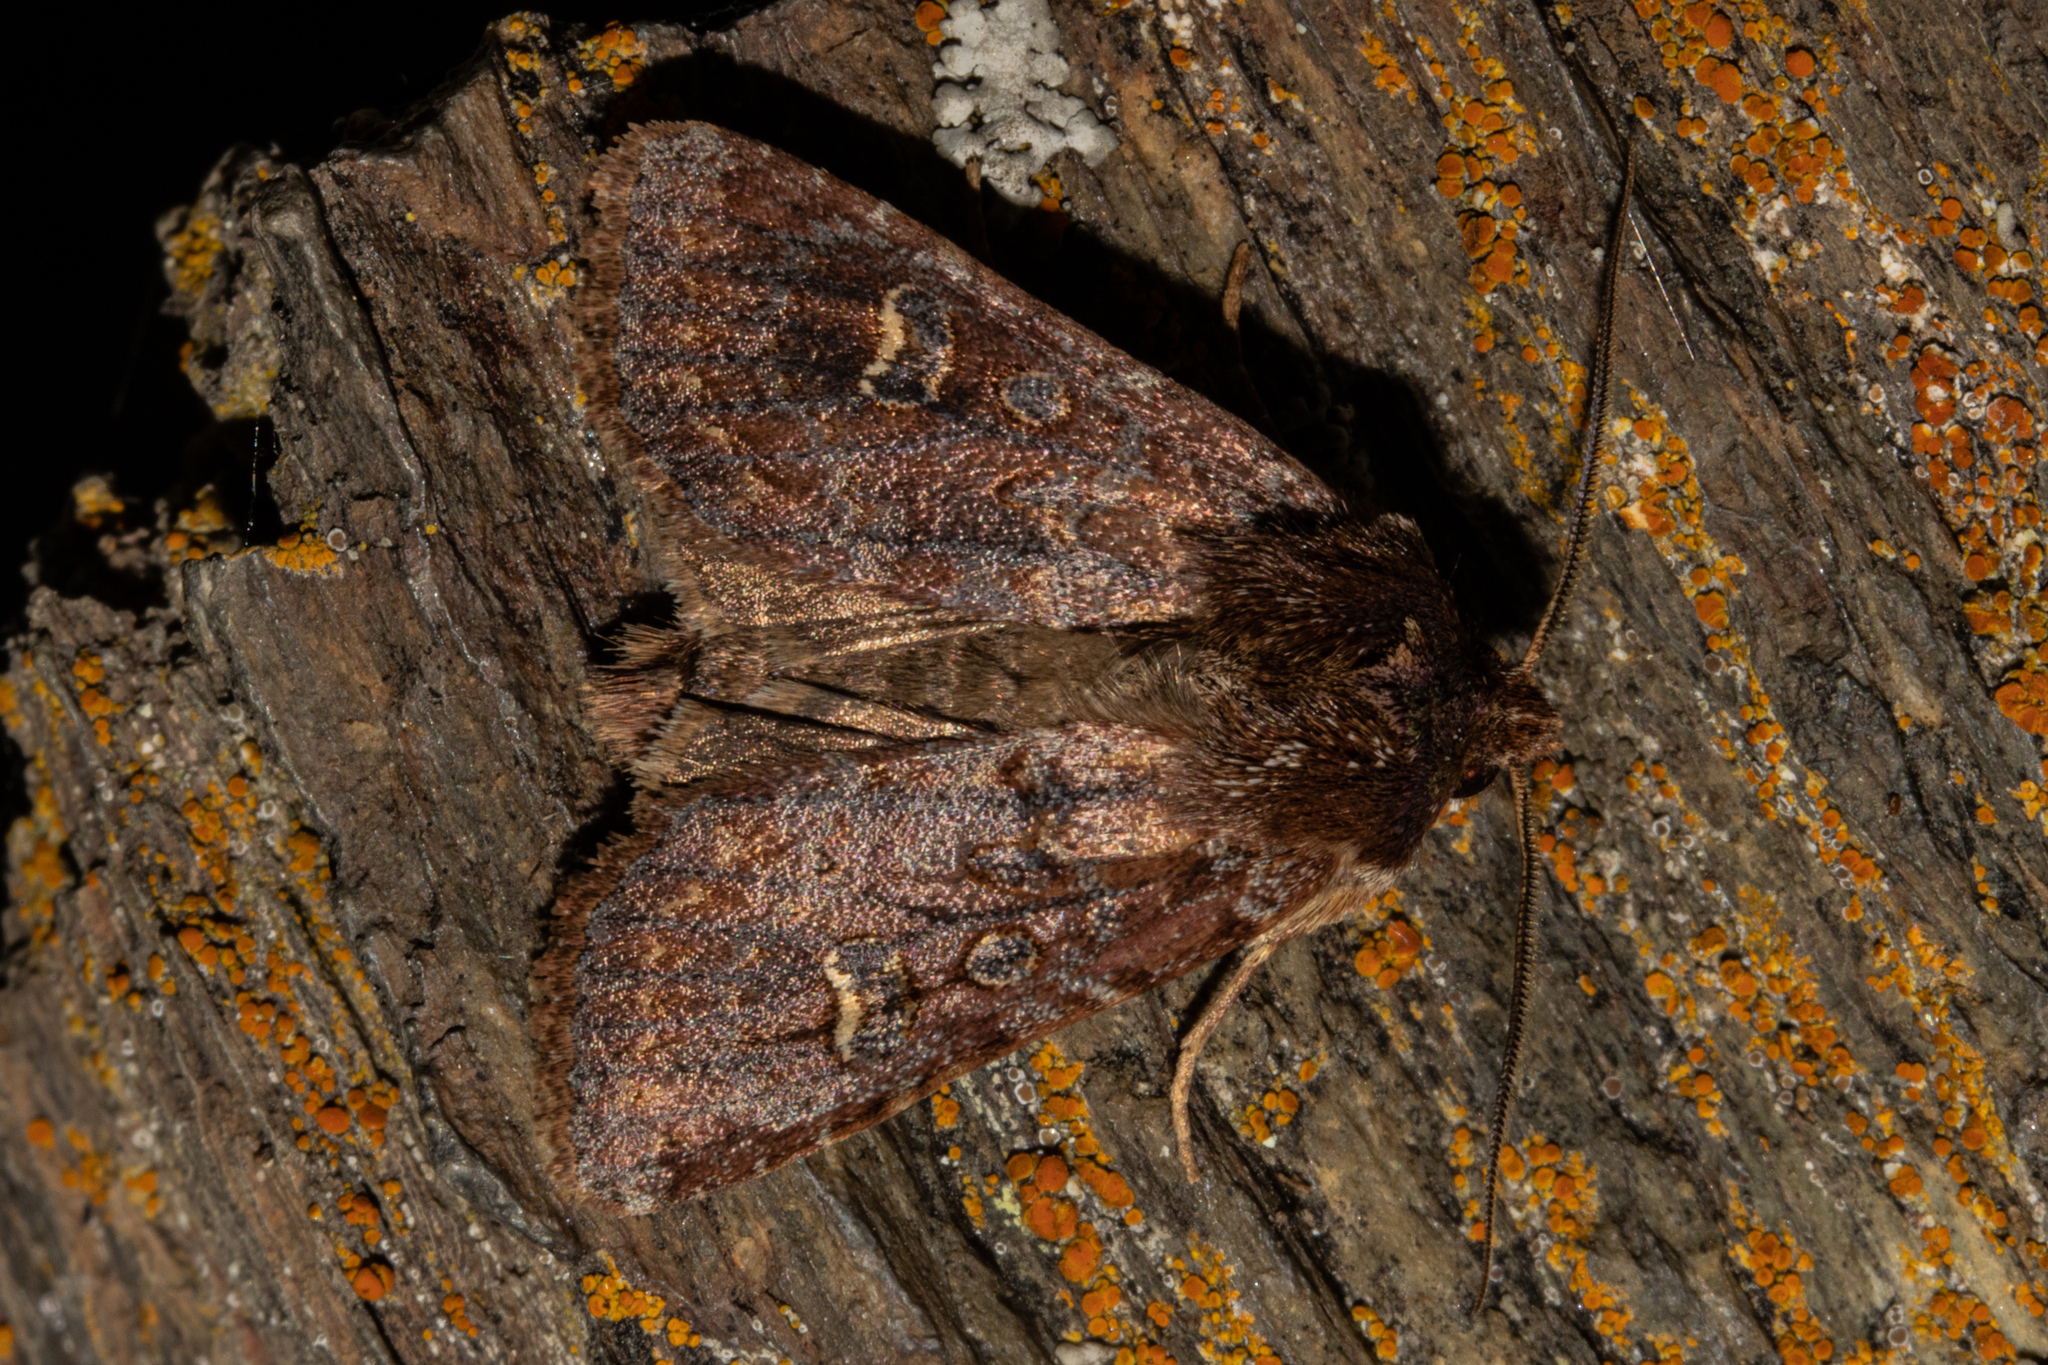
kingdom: Animalia
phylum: Arthropoda
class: Insecta
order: Lepidoptera
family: Noctuidae
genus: Ichneutica
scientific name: Ichneutica agorastis
